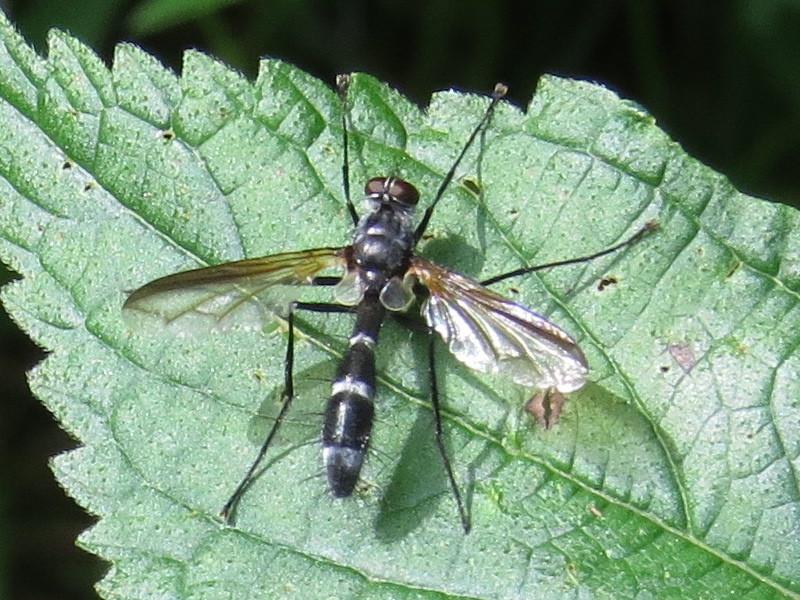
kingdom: Animalia
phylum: Arthropoda
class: Insecta
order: Diptera
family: Tachinidae
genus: Cordyligaster
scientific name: Cordyligaster septentrionalis
